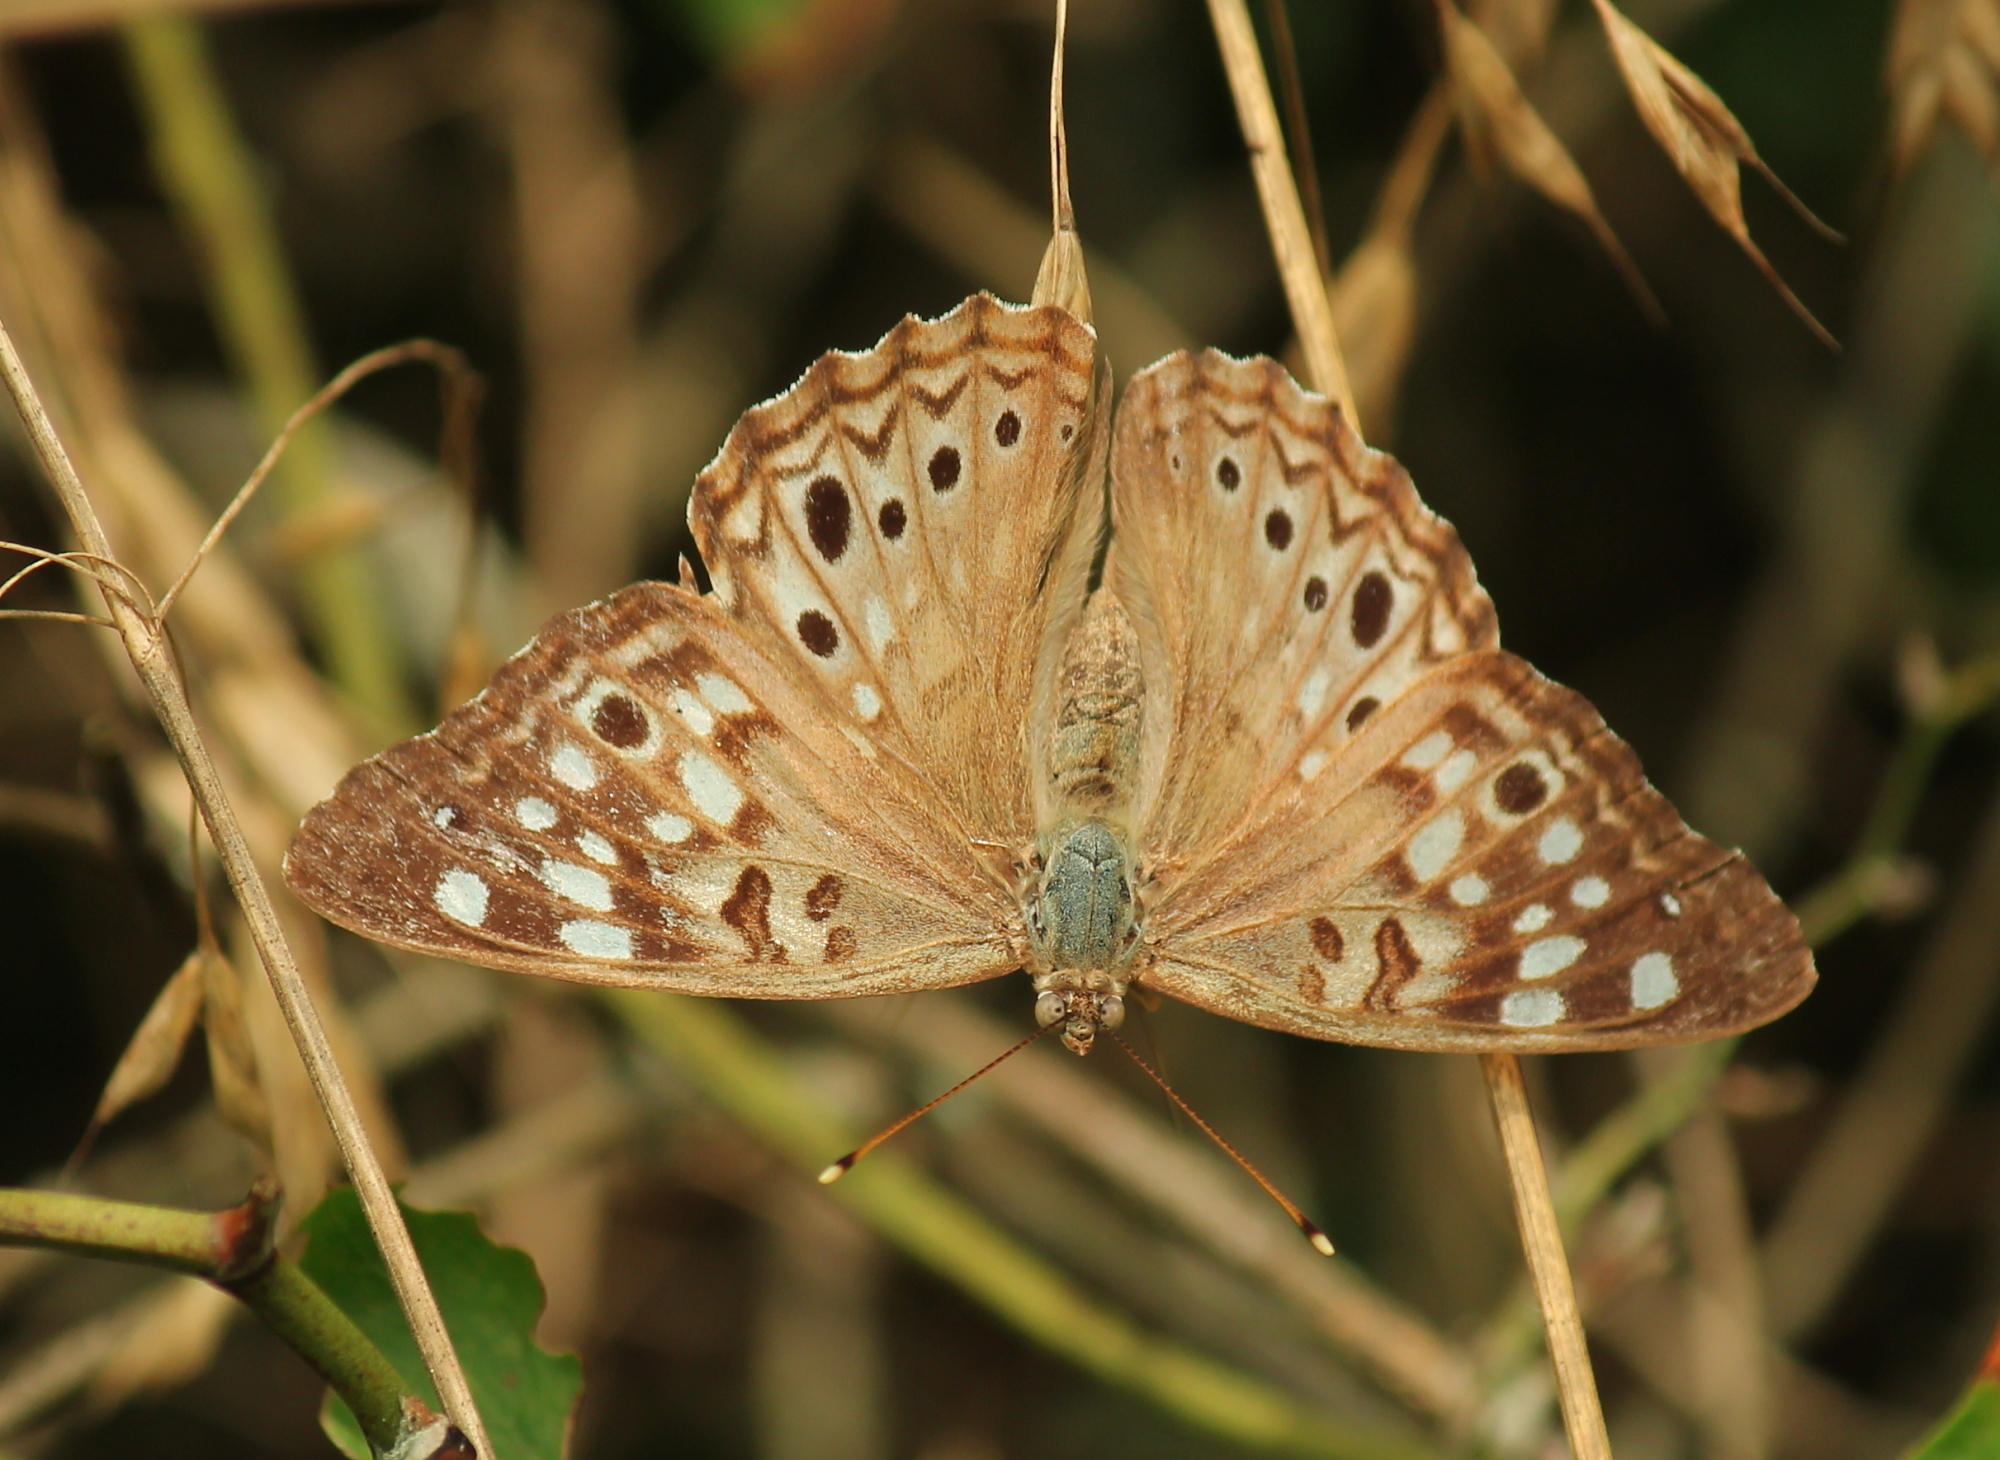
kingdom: Animalia
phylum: Arthropoda
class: Insecta
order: Lepidoptera
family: Nymphalidae
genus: Asterocampa
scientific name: Asterocampa celtis
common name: Hackberry emperor
